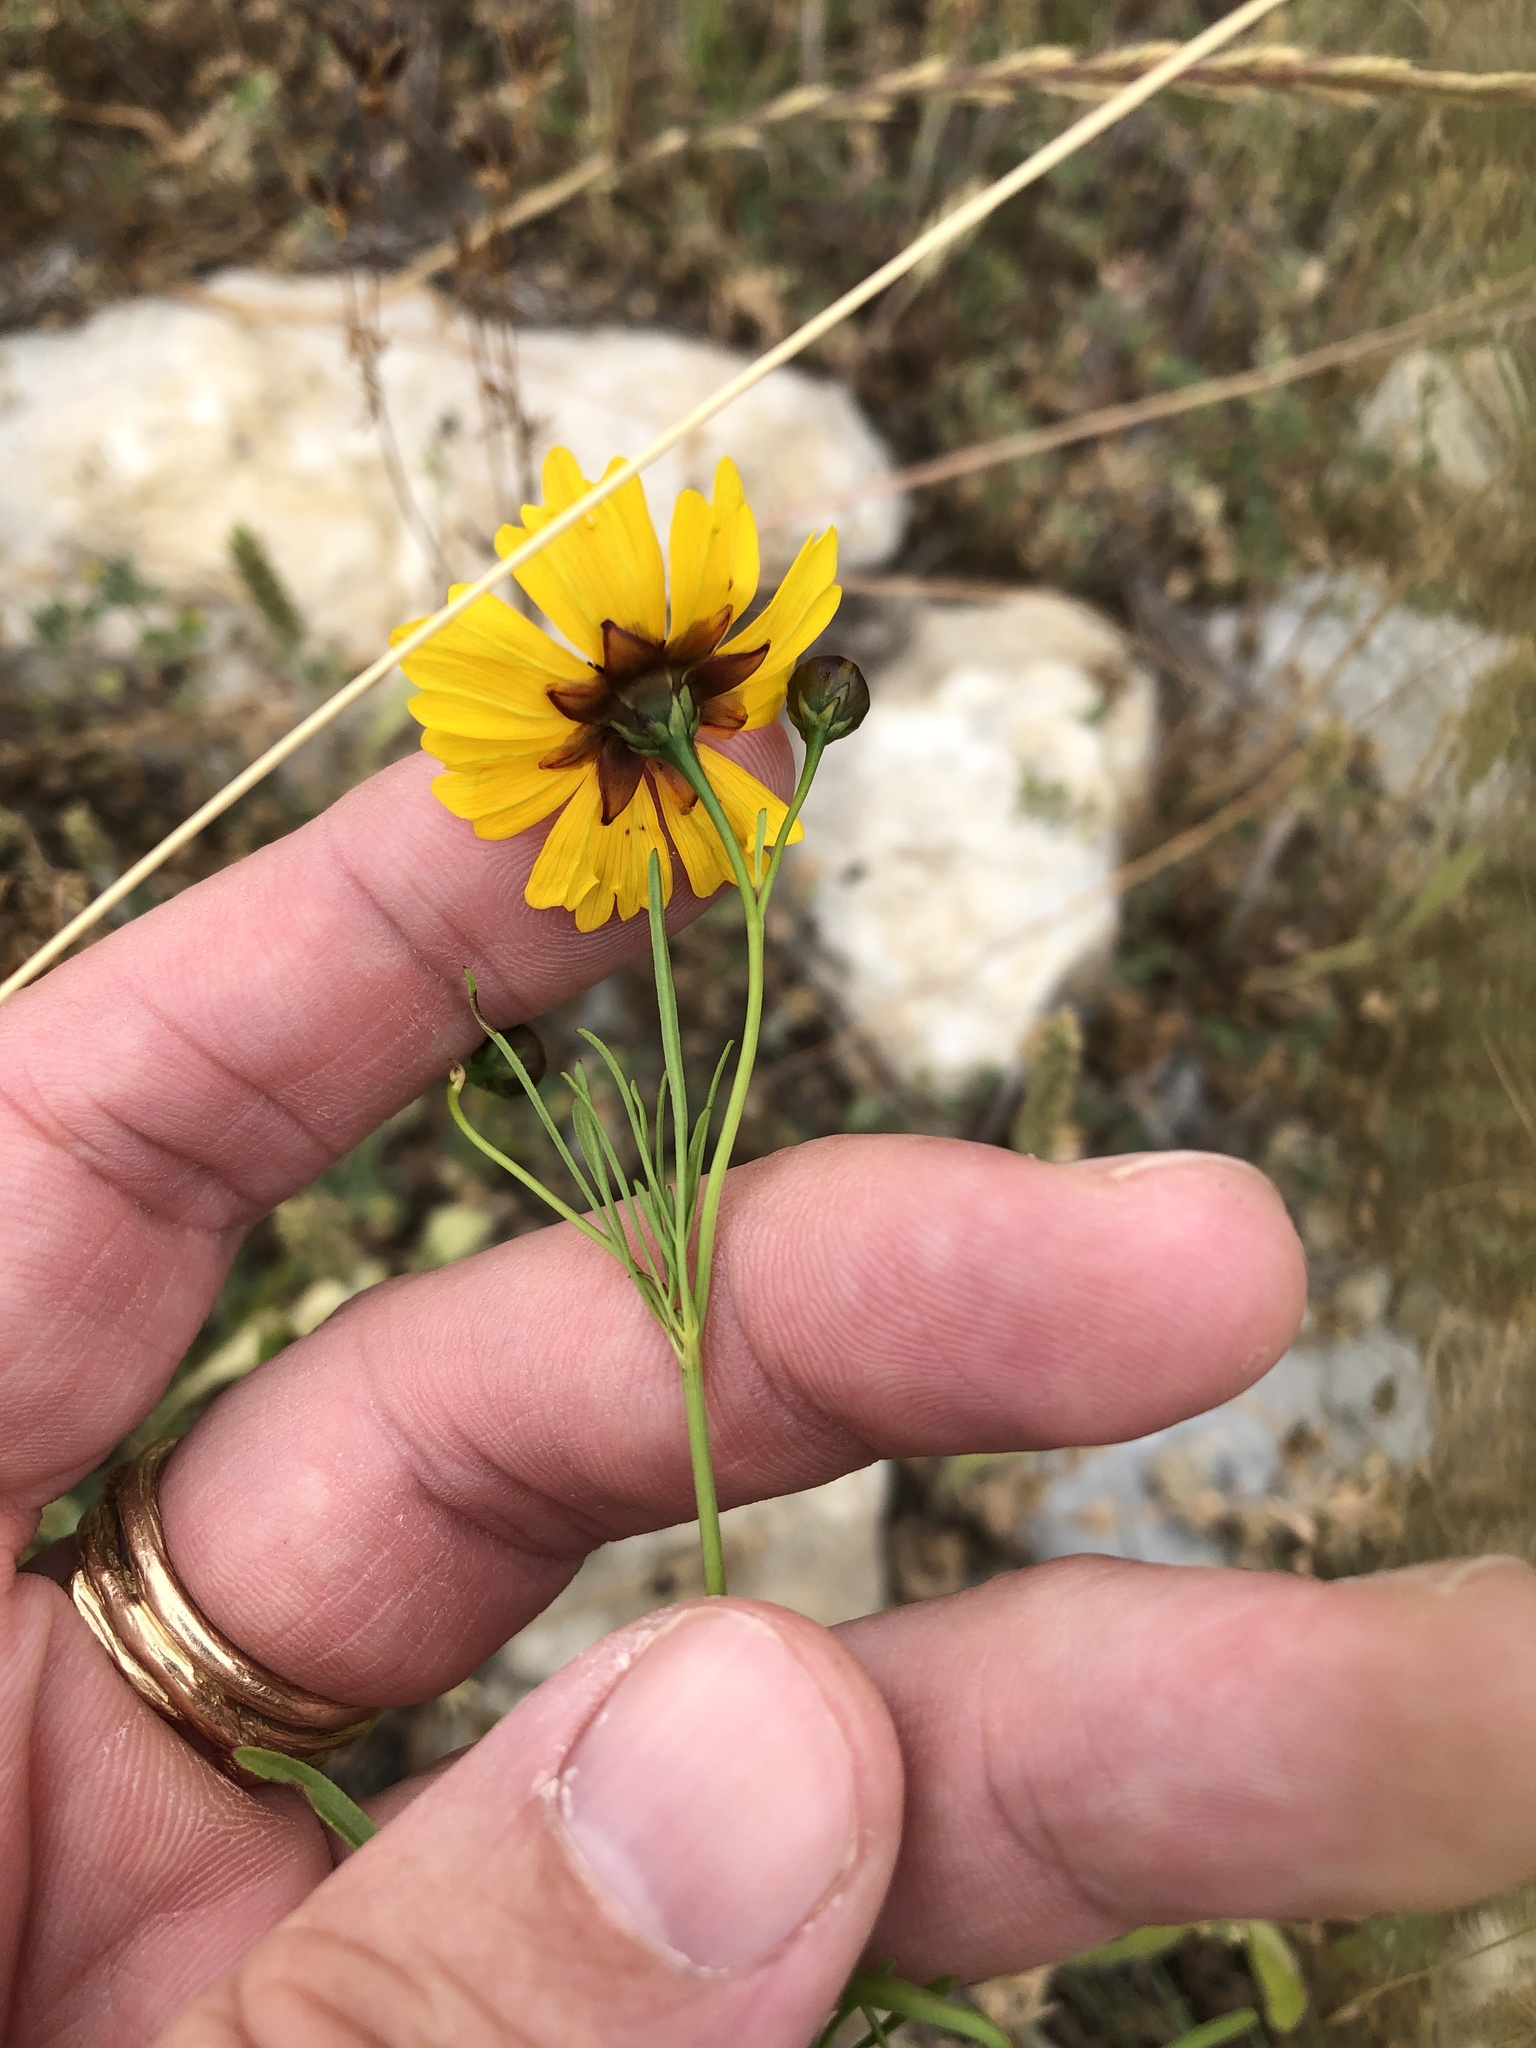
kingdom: Plantae
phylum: Tracheophyta
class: Magnoliopsida
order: Asterales
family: Asteraceae
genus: Coreopsis
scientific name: Coreopsis tinctoria
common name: Garden tickseed
